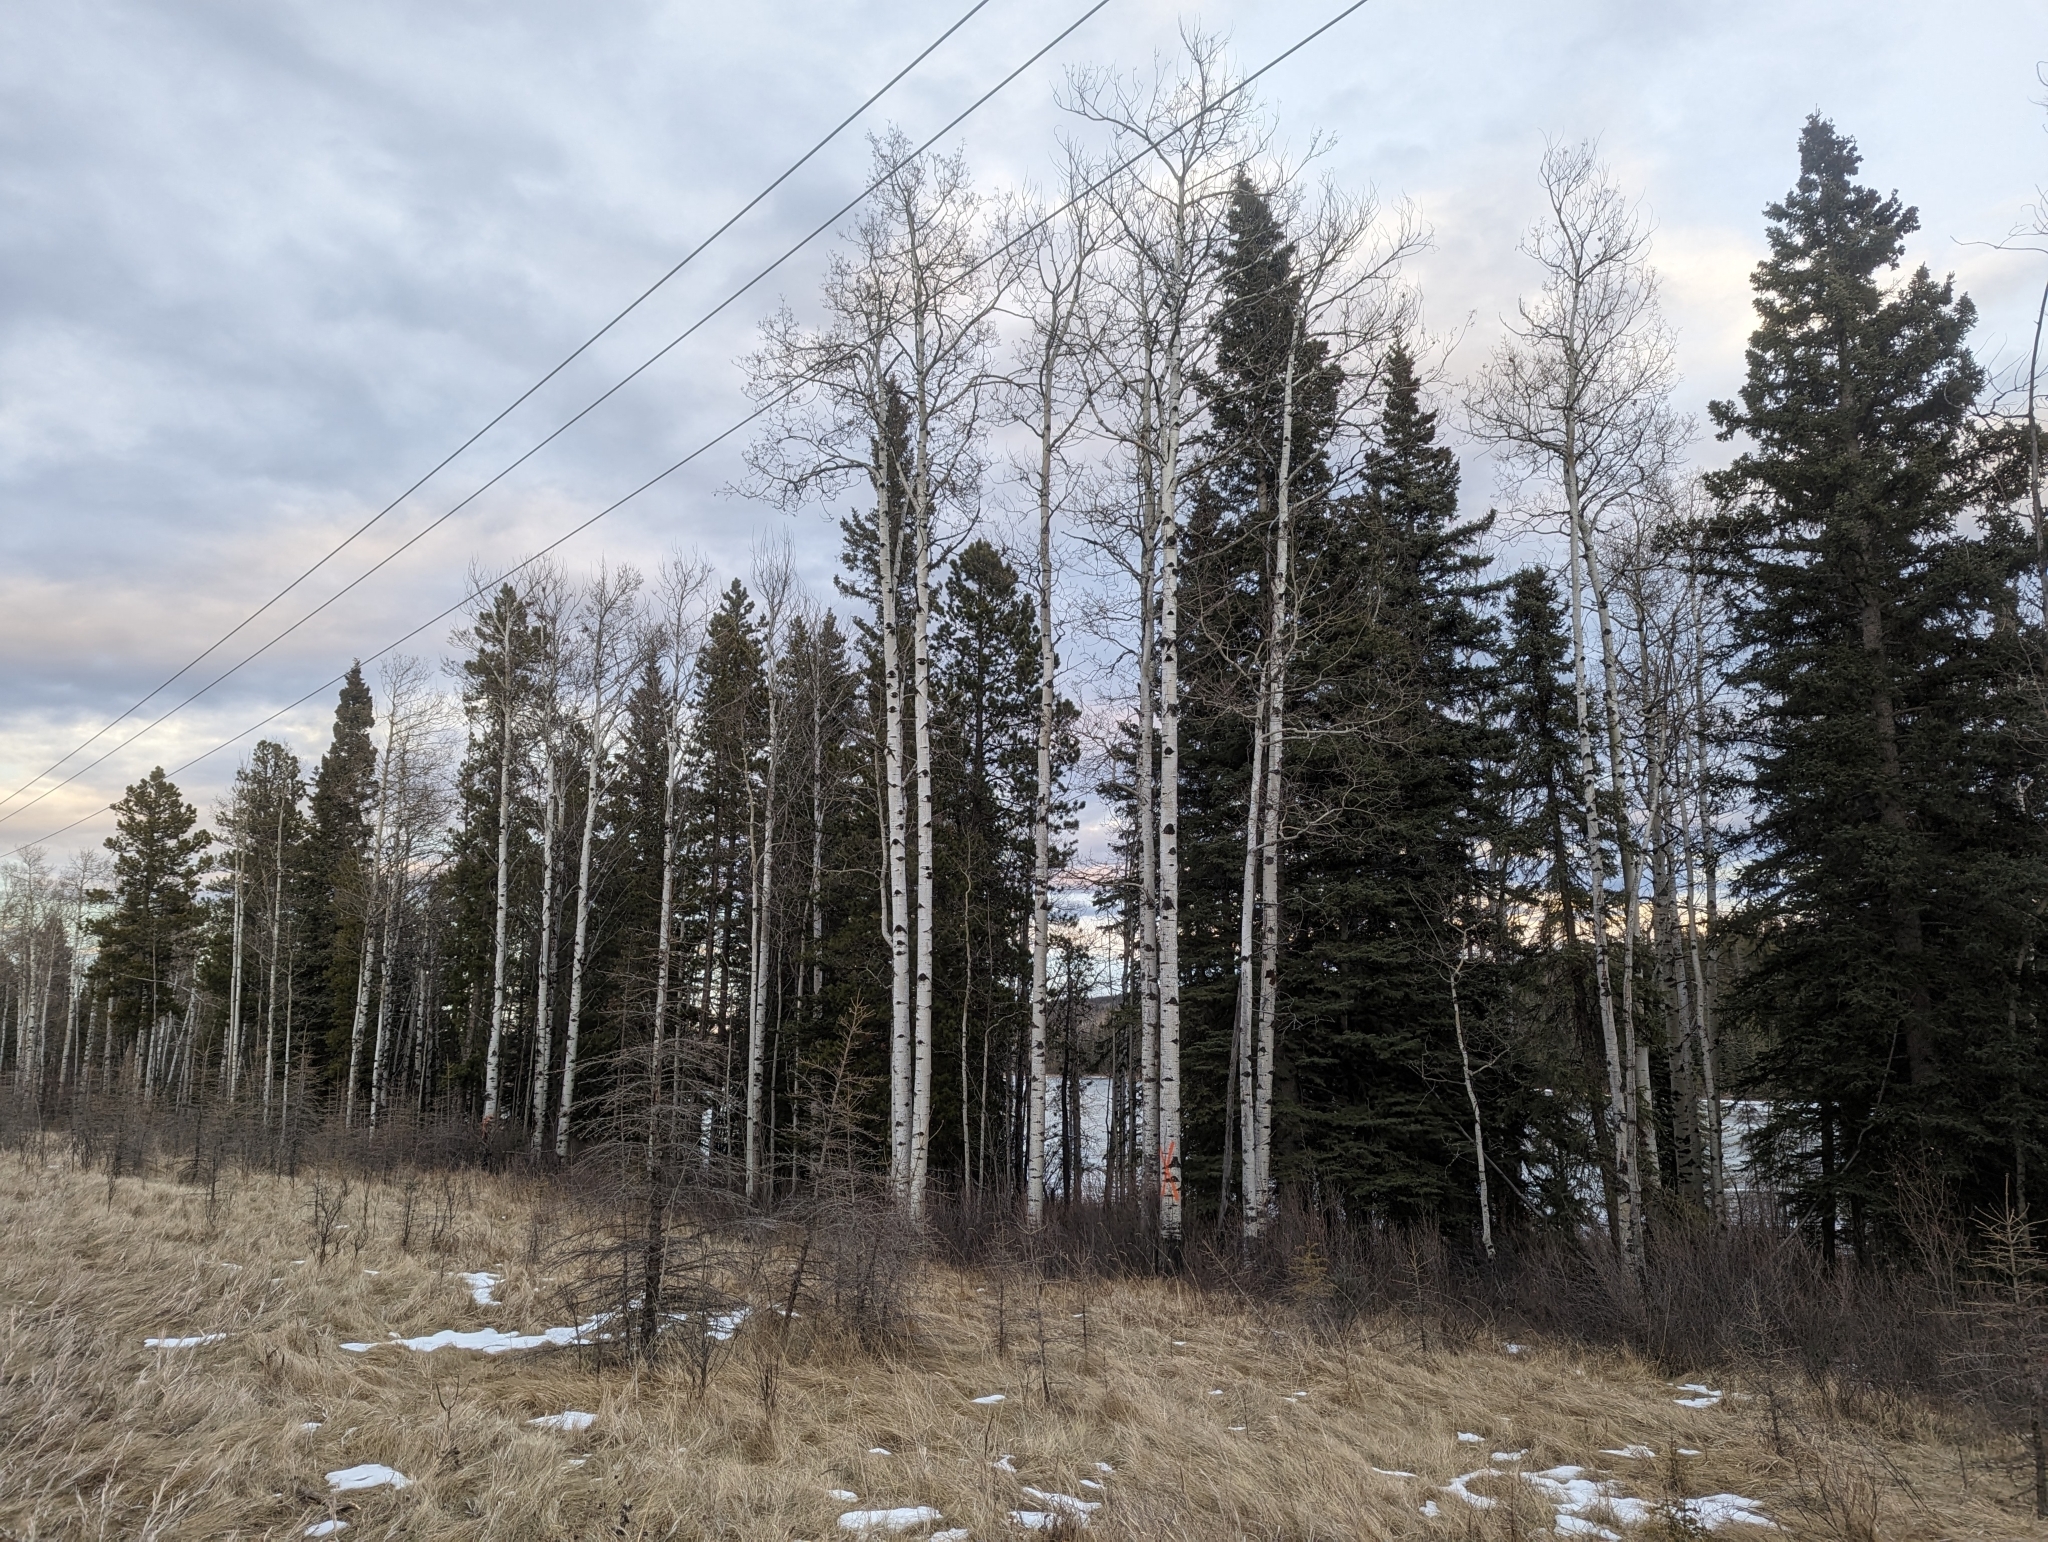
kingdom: Plantae
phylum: Tracheophyta
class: Magnoliopsida
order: Malpighiales
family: Salicaceae
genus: Populus
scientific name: Populus tremuloides
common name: Quaking aspen
